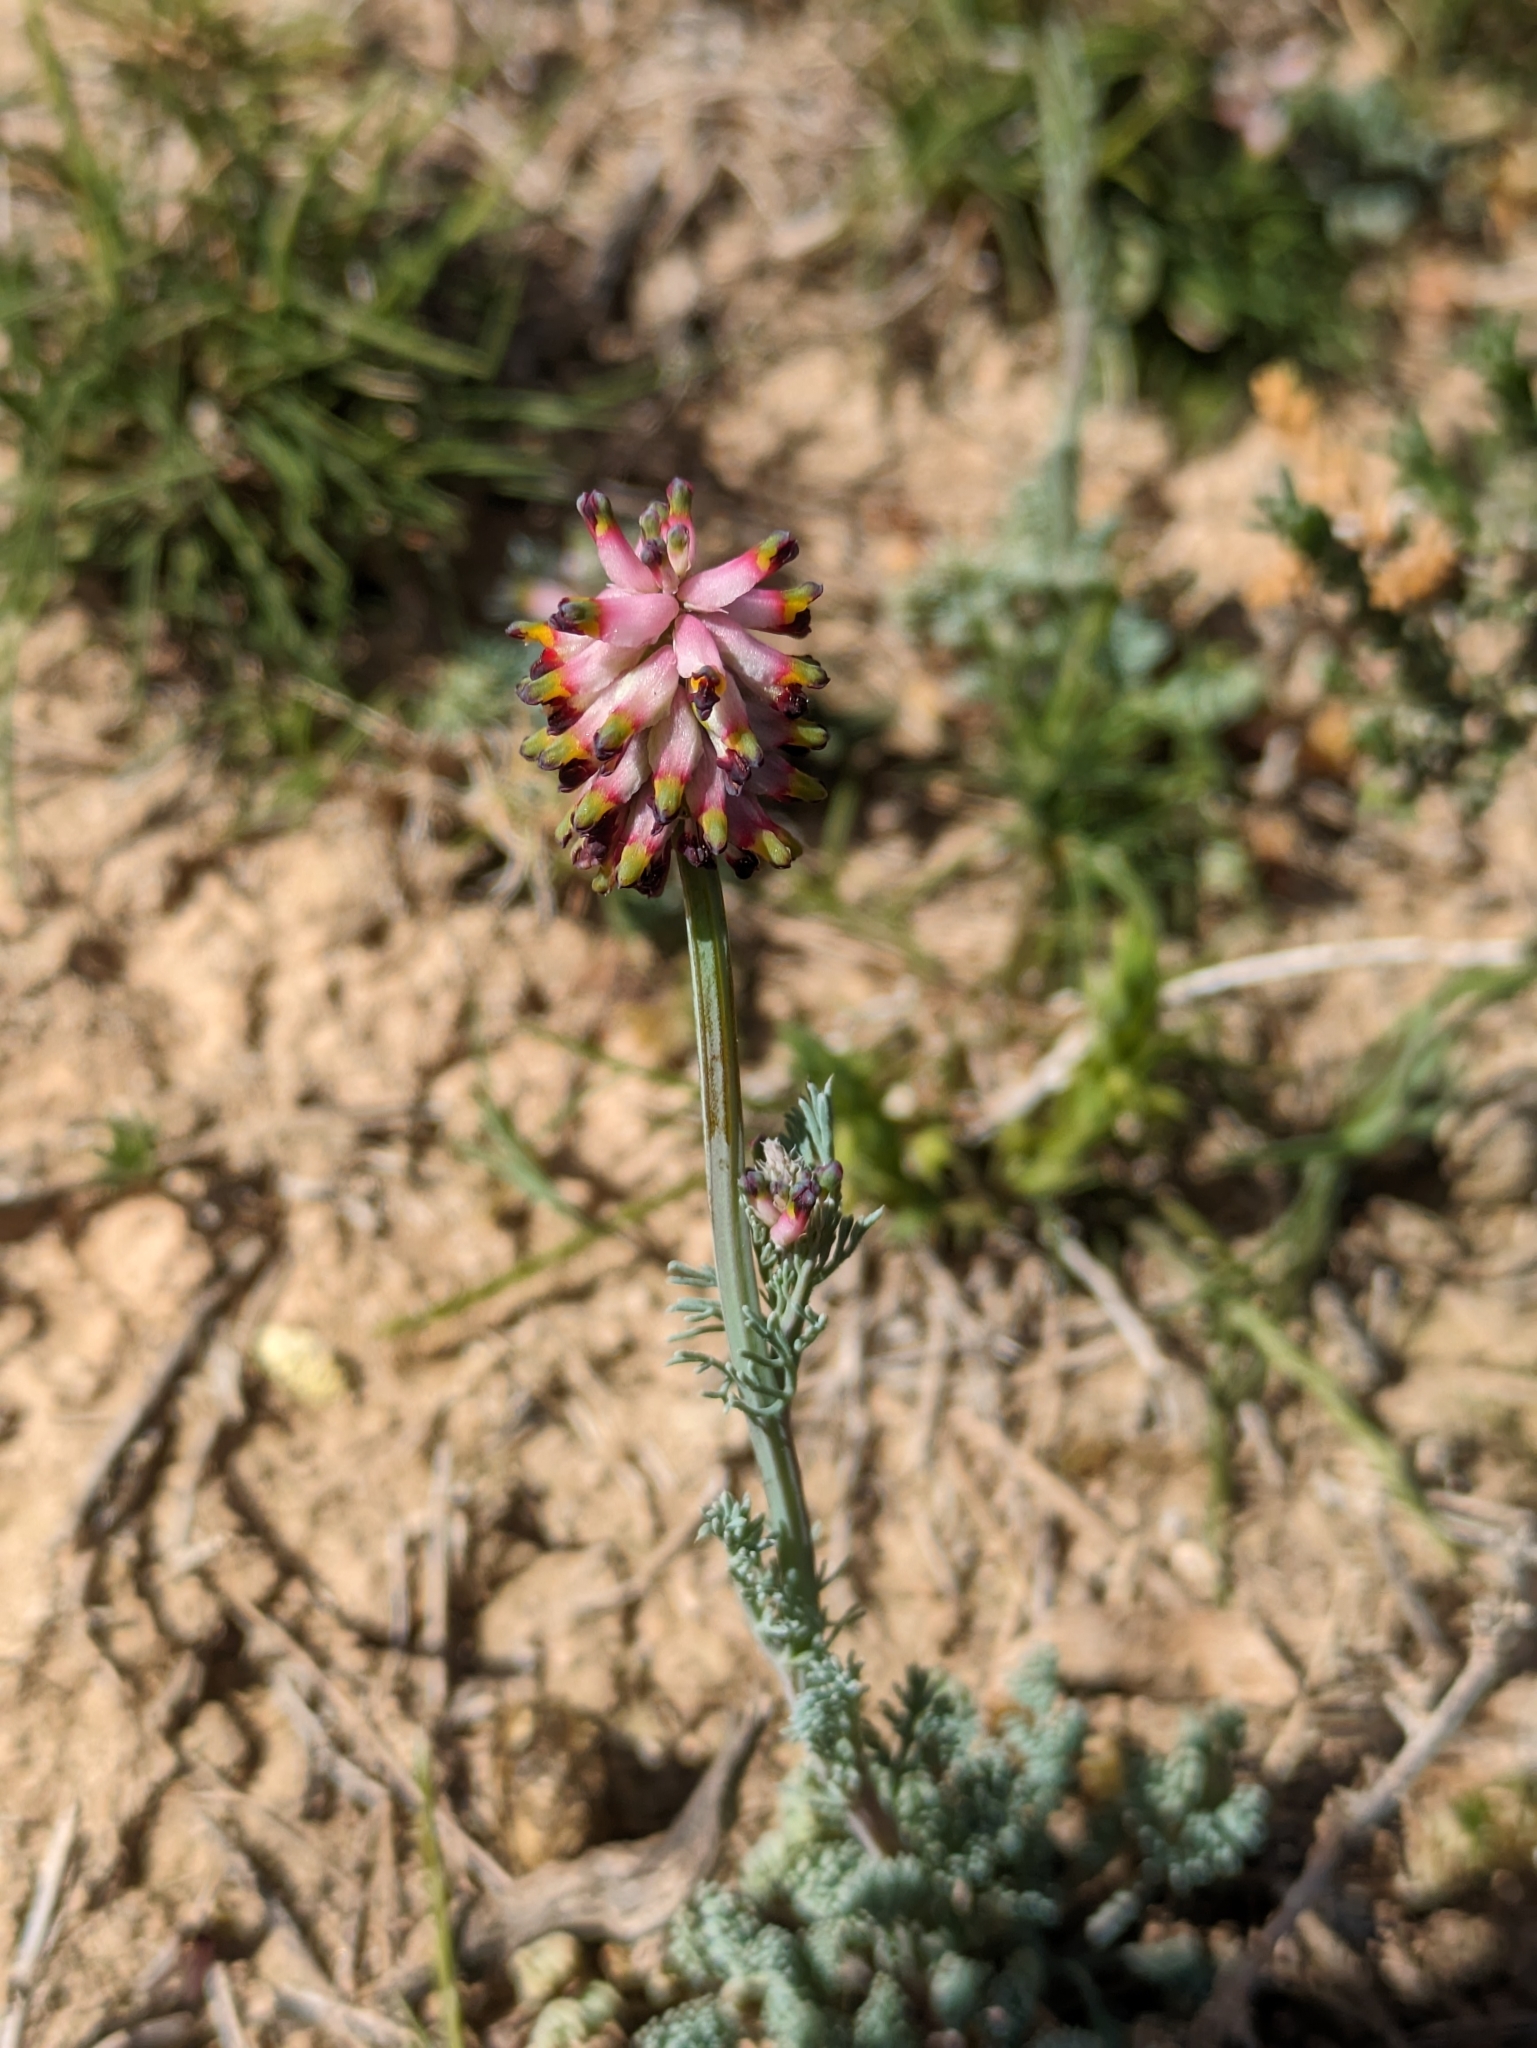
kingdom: Plantae
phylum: Tracheophyta
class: Magnoliopsida
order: Ranunculales
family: Papaveraceae
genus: Platycapnos
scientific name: Platycapnos spicata
